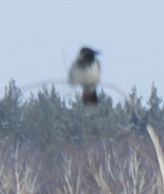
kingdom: Animalia
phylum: Chordata
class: Aves
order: Passeriformes
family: Corvidae
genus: Corvus
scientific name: Corvus cornix
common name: Hooded crow
